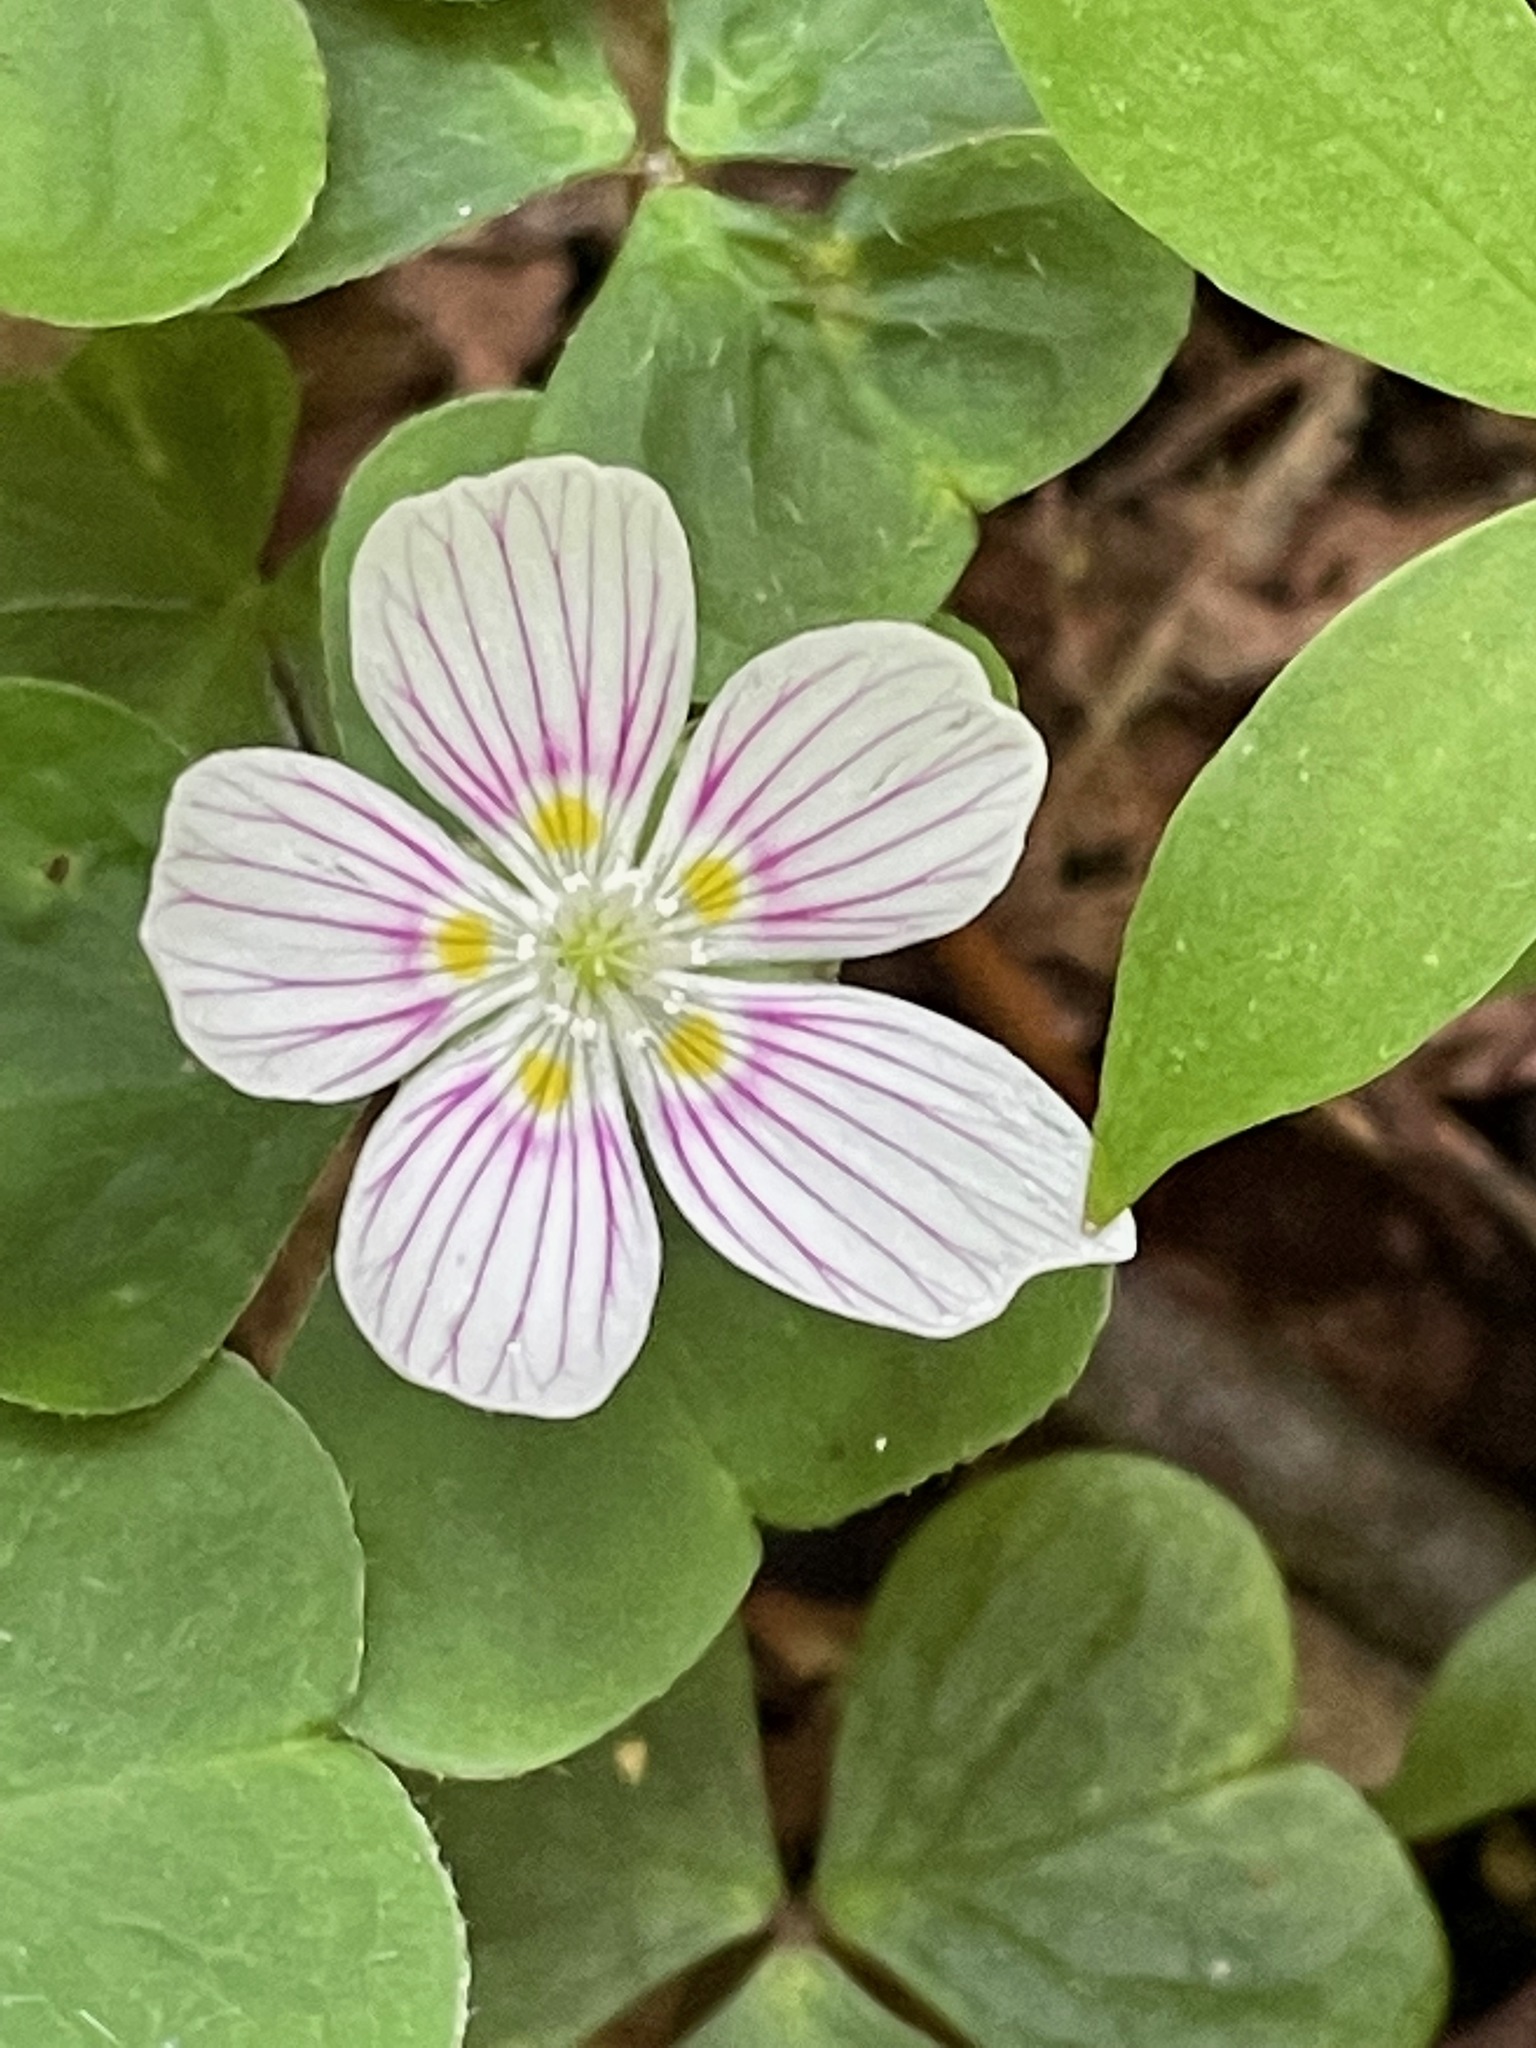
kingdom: Plantae
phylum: Tracheophyta
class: Magnoliopsida
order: Oxalidales
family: Oxalidaceae
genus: Oxalis
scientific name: Oxalis montana
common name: American wood-sorrel
